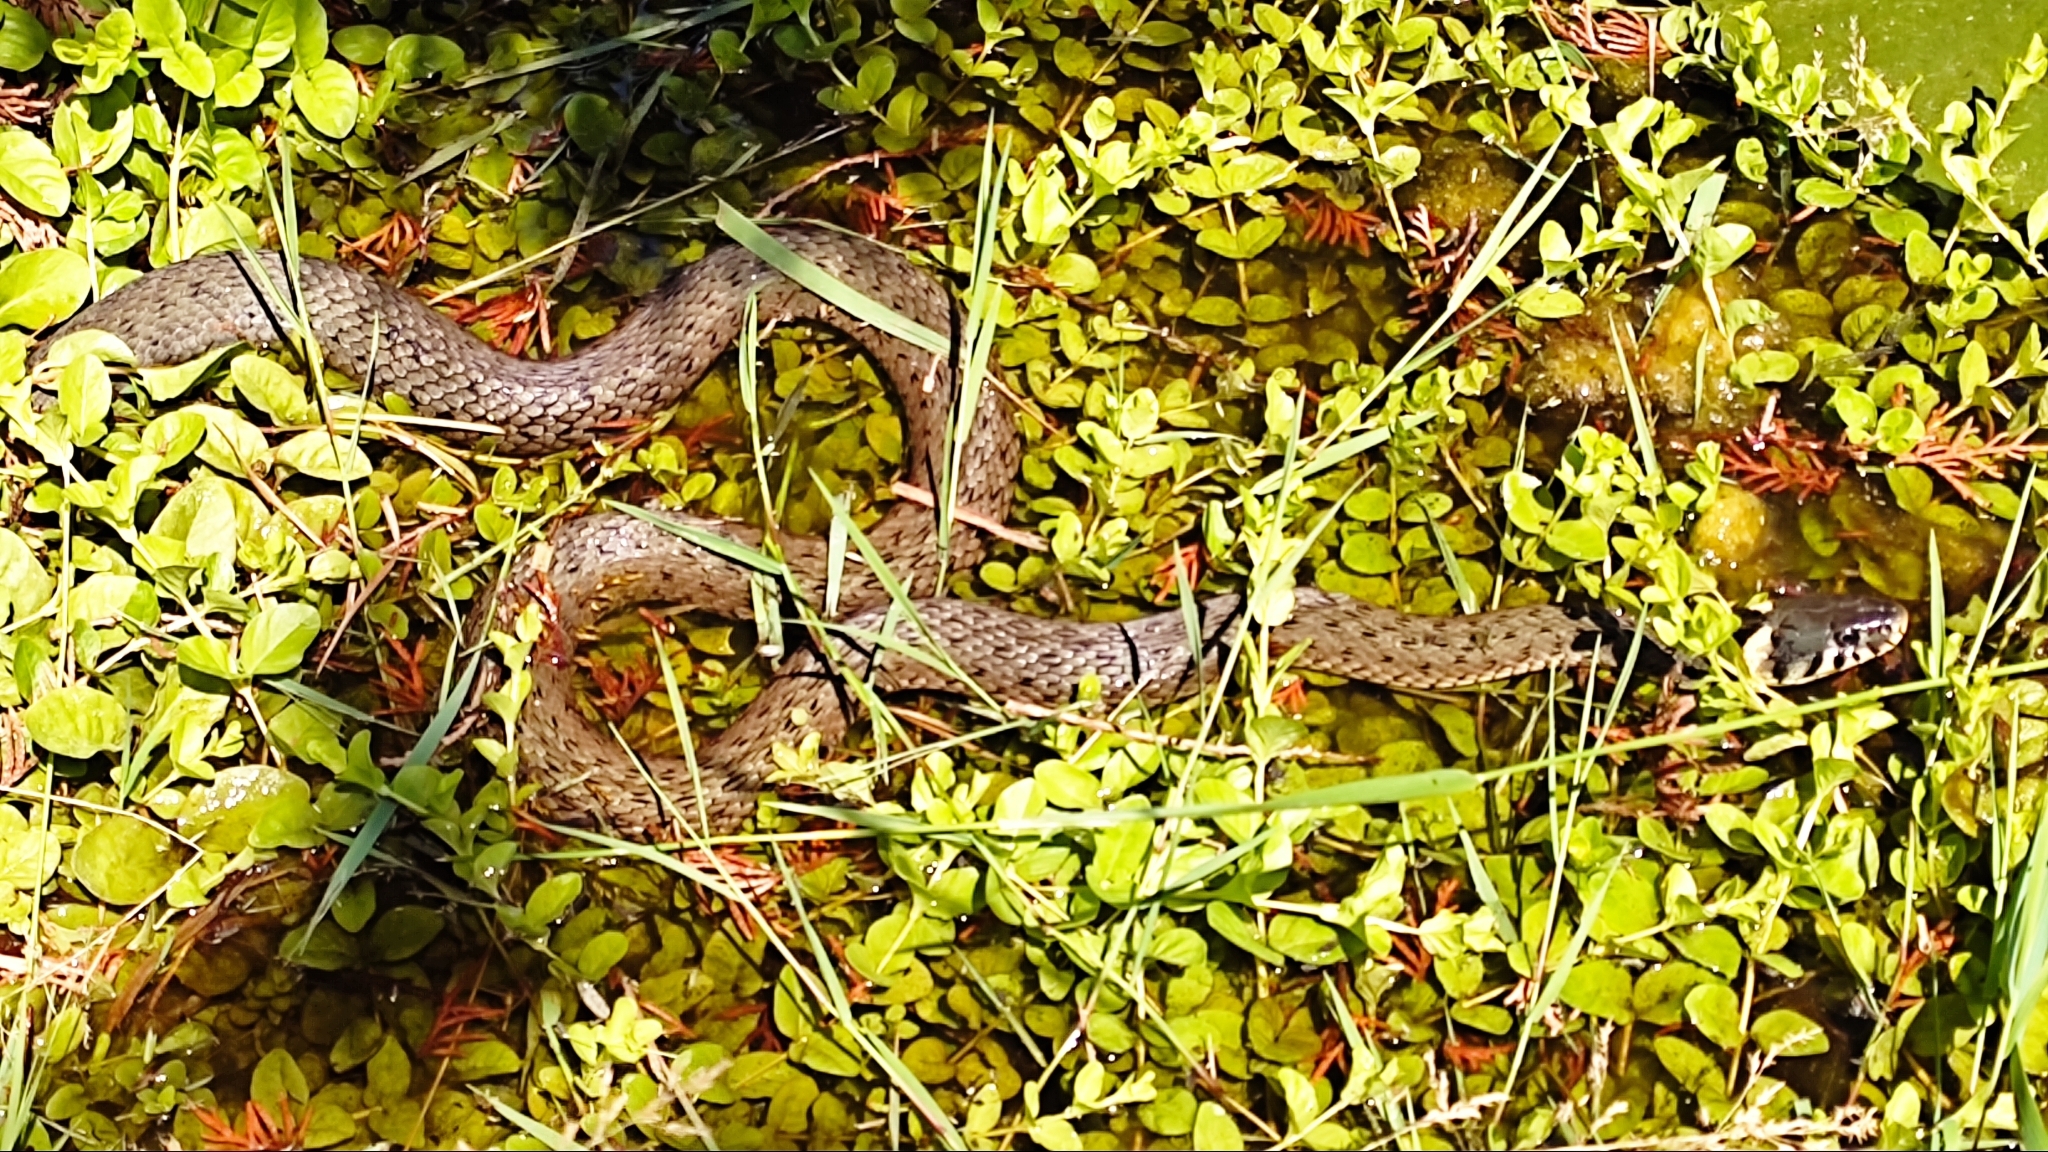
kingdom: Animalia
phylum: Chordata
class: Squamata
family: Colubridae
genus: Natrix
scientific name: Natrix natrix
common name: Grass snake
